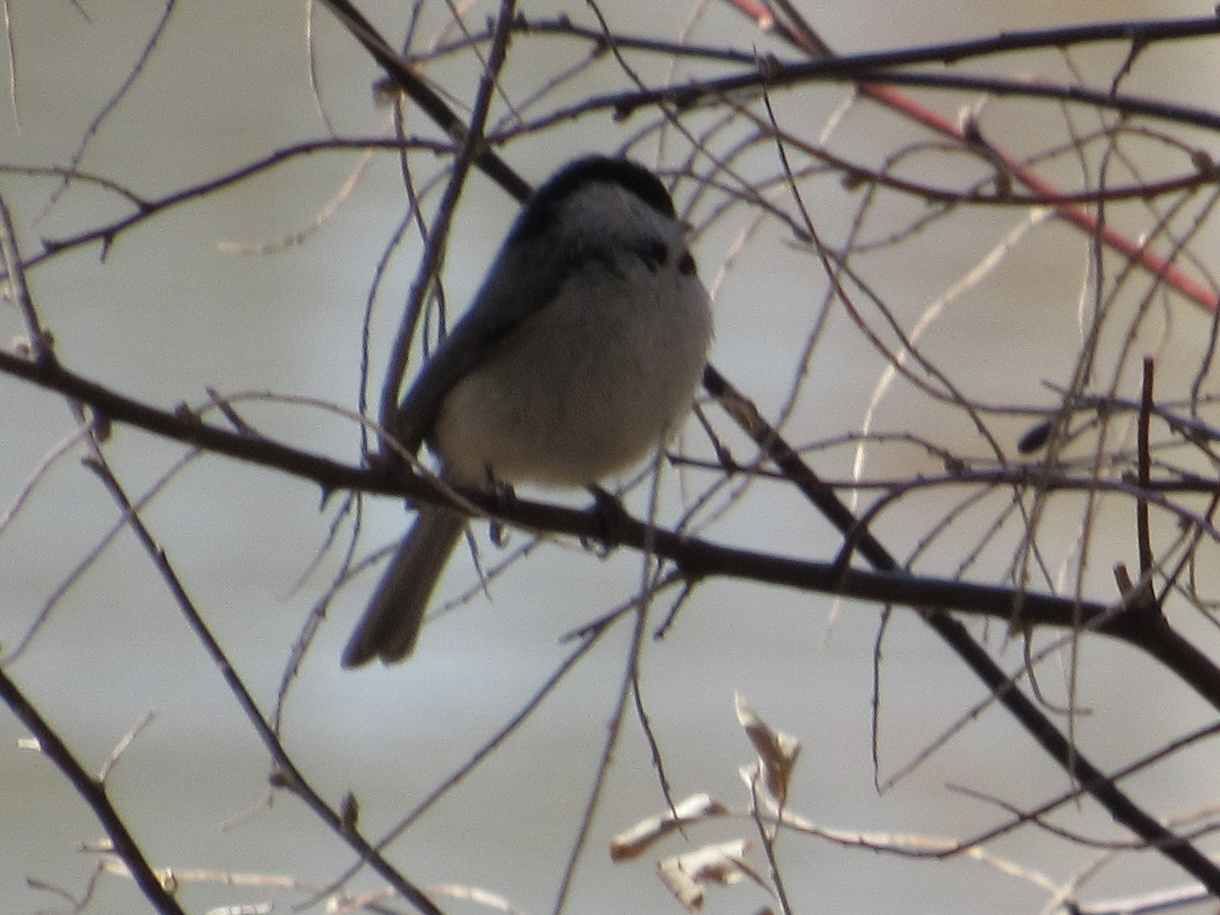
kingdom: Animalia
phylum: Chordata
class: Aves
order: Passeriformes
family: Paridae
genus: Poecile
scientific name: Poecile carolinensis
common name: Carolina chickadee
